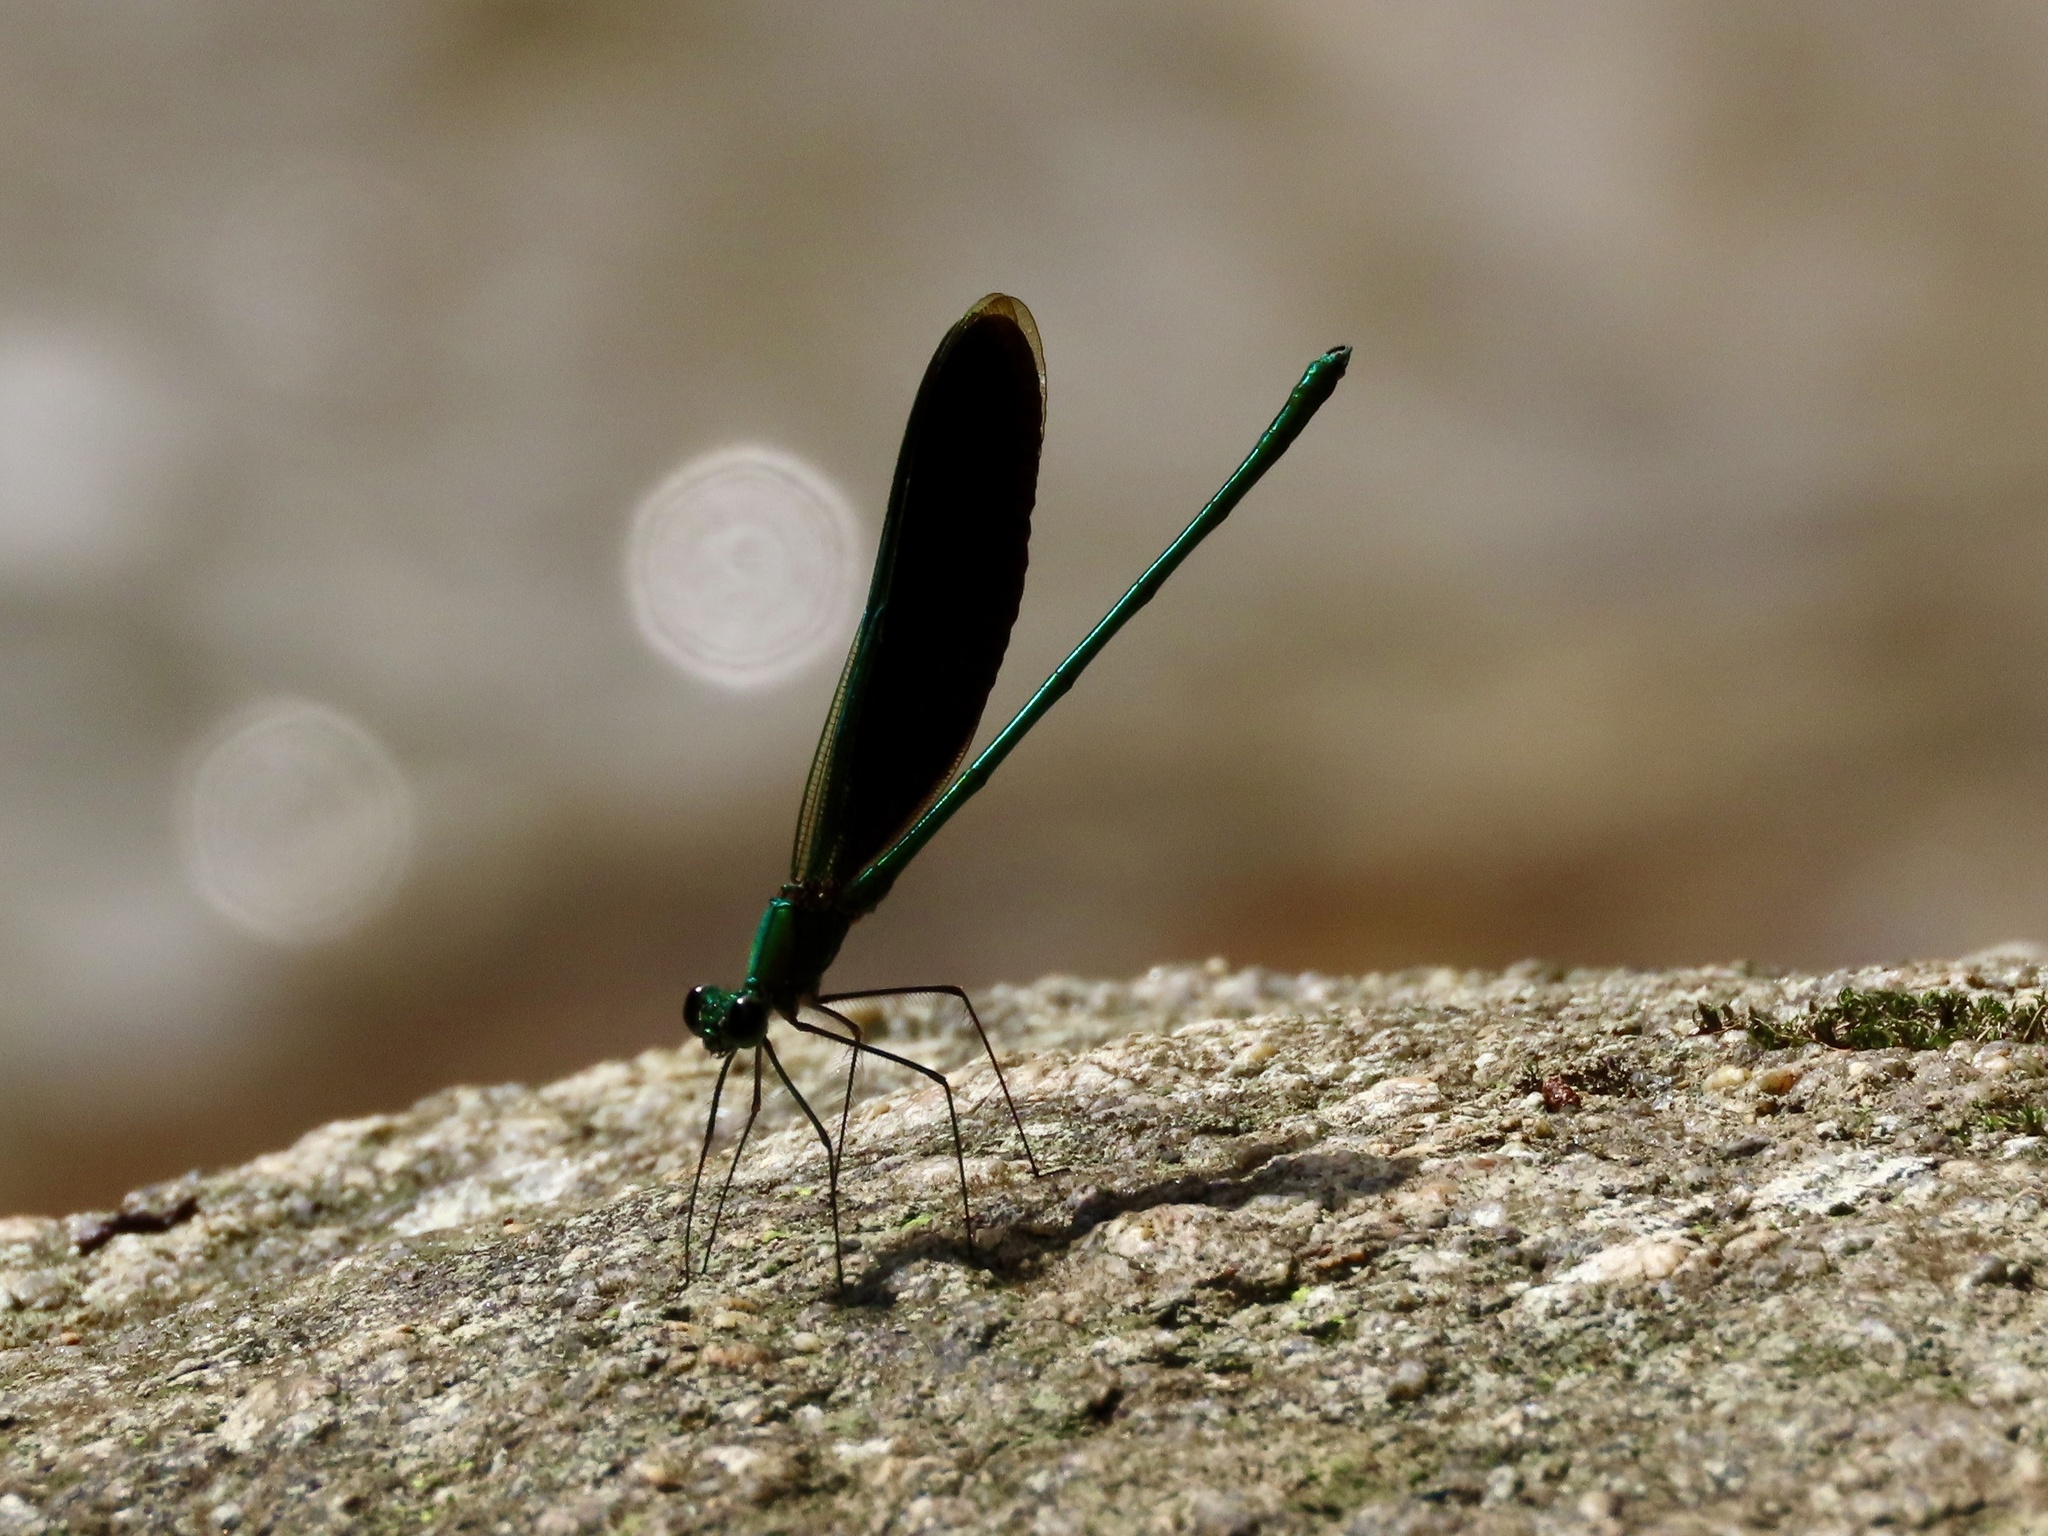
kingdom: Animalia
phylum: Arthropoda
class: Insecta
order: Odonata
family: Calopterygidae
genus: Neurobasis
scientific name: Neurobasis chinensis
